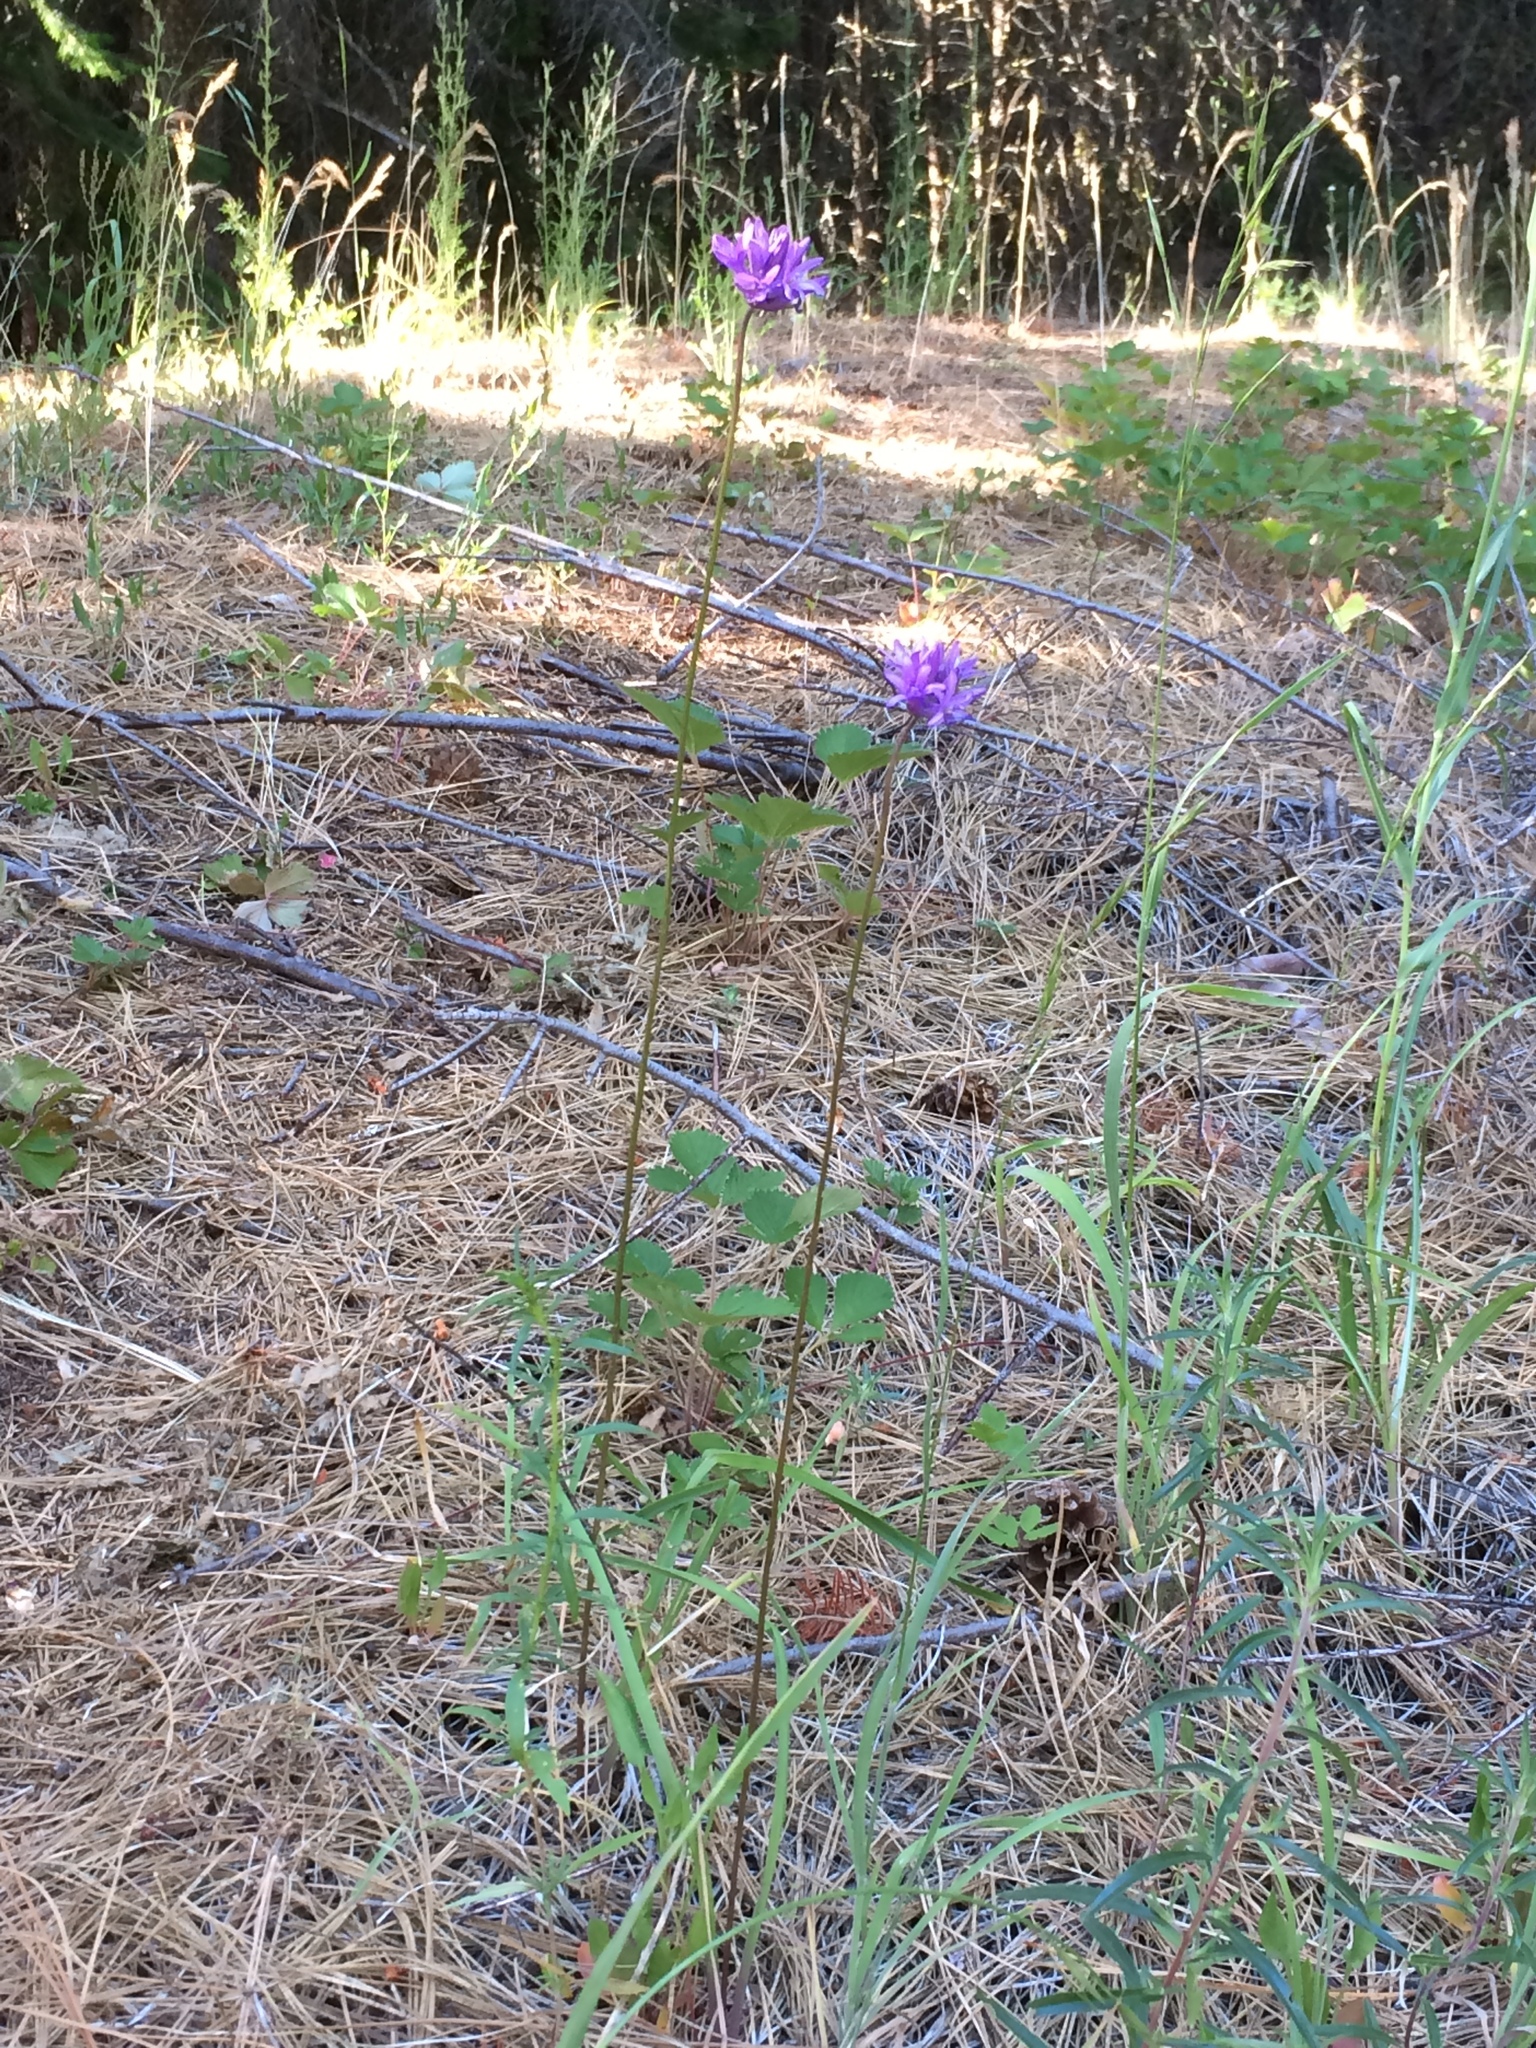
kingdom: Plantae
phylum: Tracheophyta
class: Liliopsida
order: Asparagales
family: Asparagaceae
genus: Dichelostemma
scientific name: Dichelostemma congestum
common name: Fork-tooth ookow
